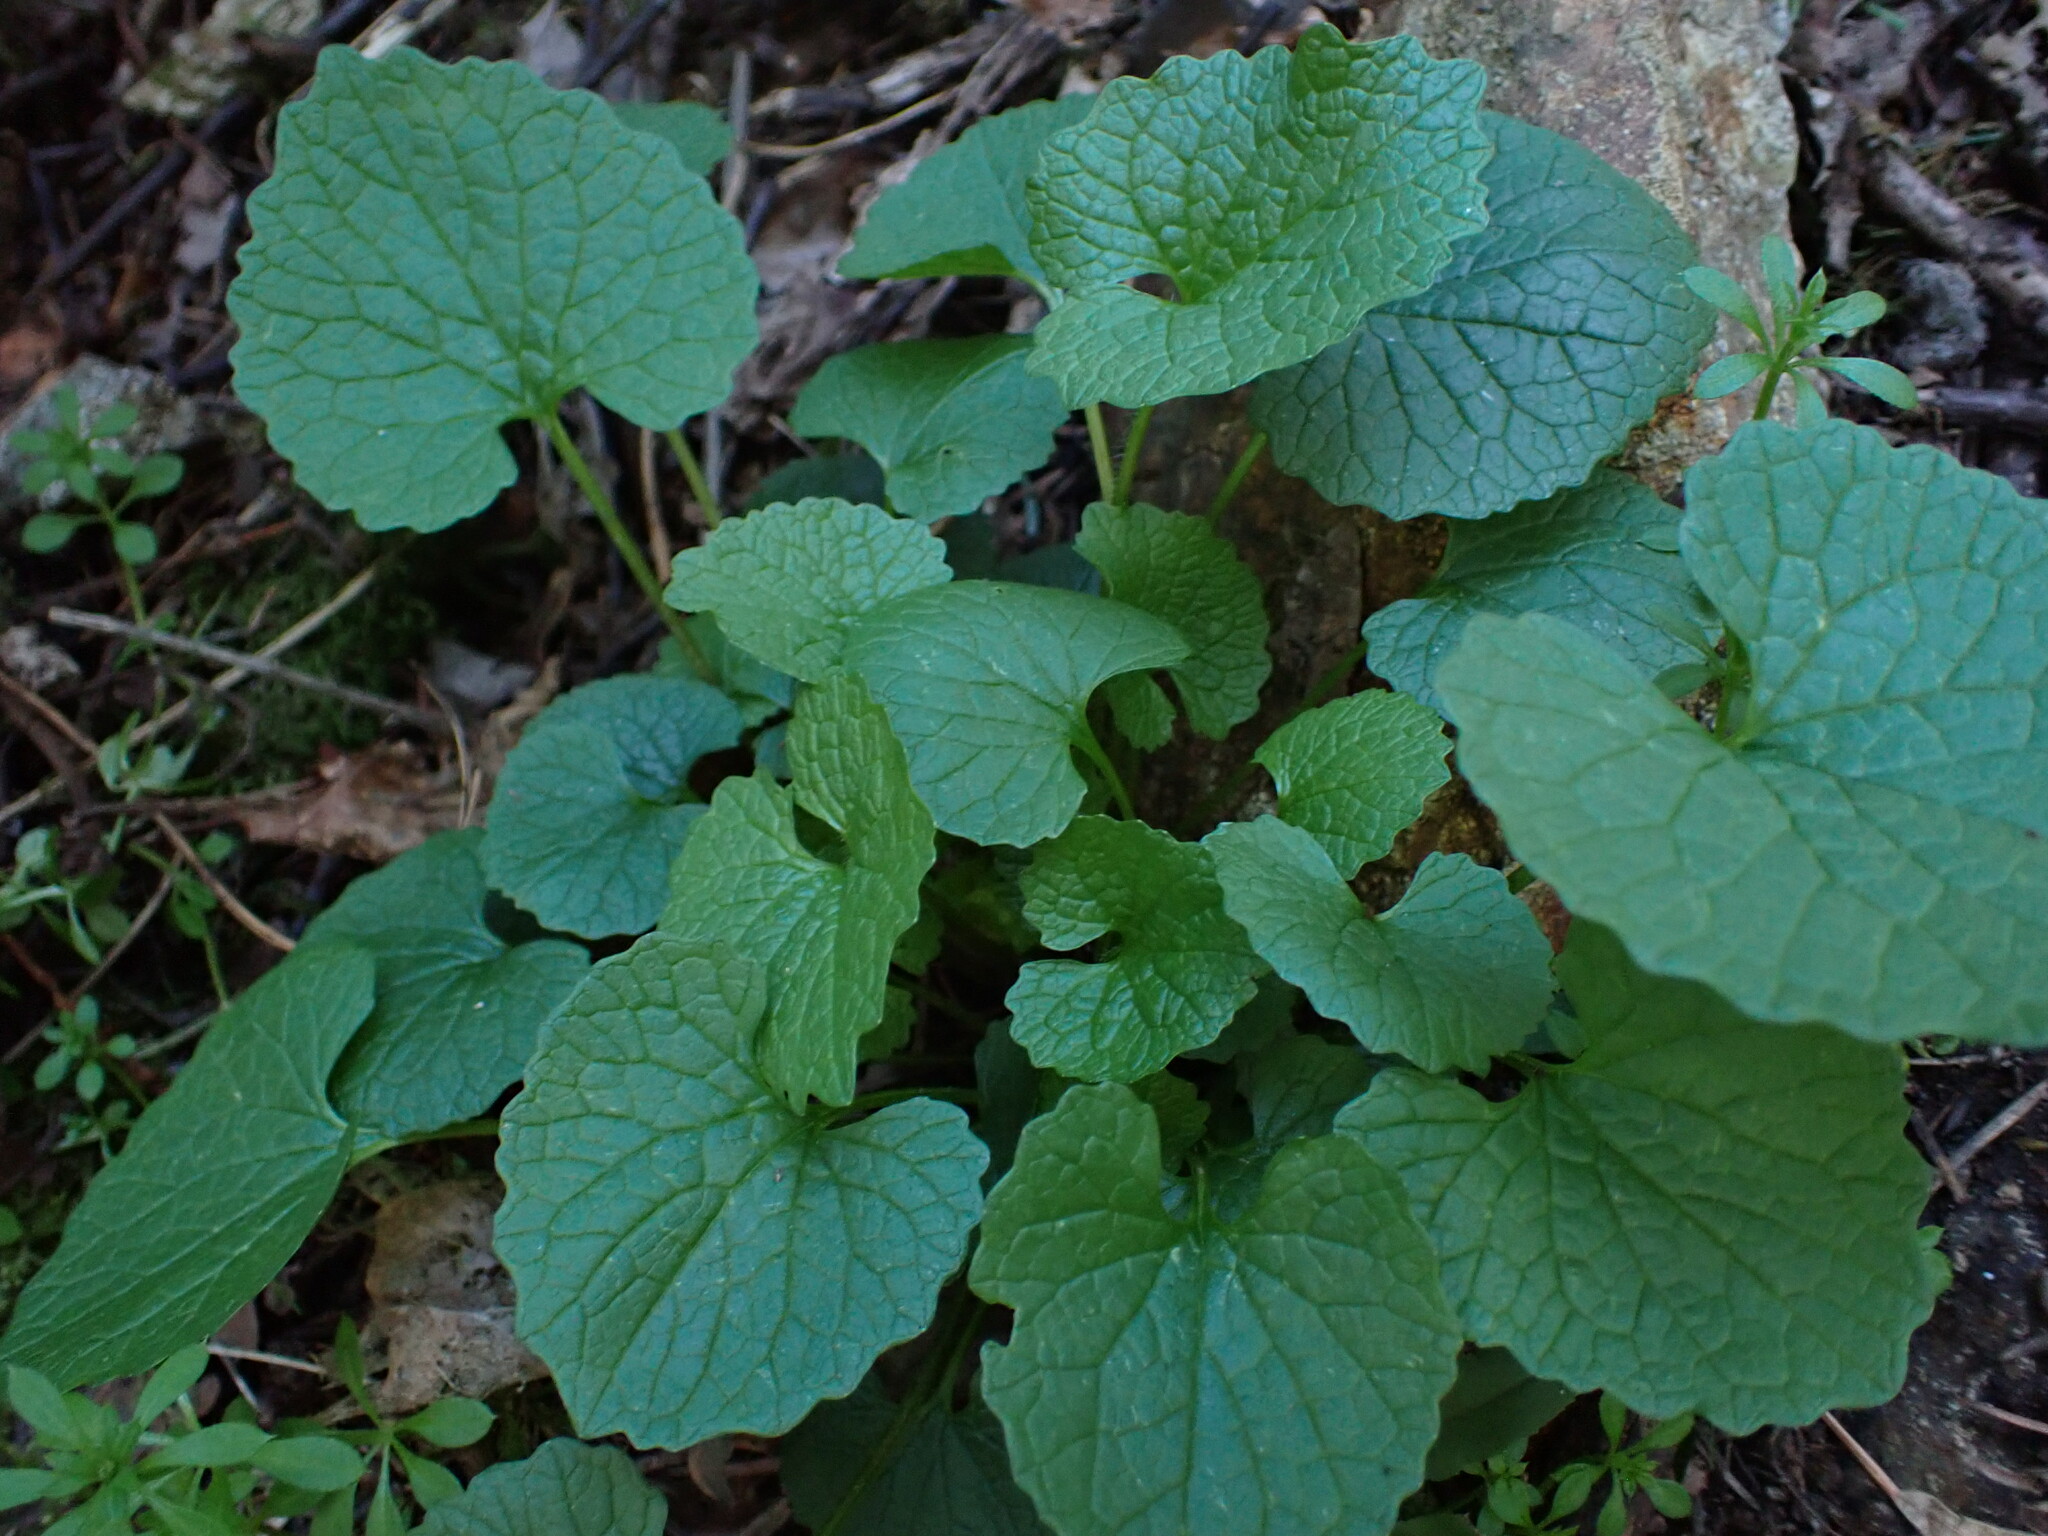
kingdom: Plantae
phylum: Tracheophyta
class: Magnoliopsida
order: Brassicales
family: Brassicaceae
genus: Alliaria
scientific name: Alliaria petiolata
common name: Garlic mustard
